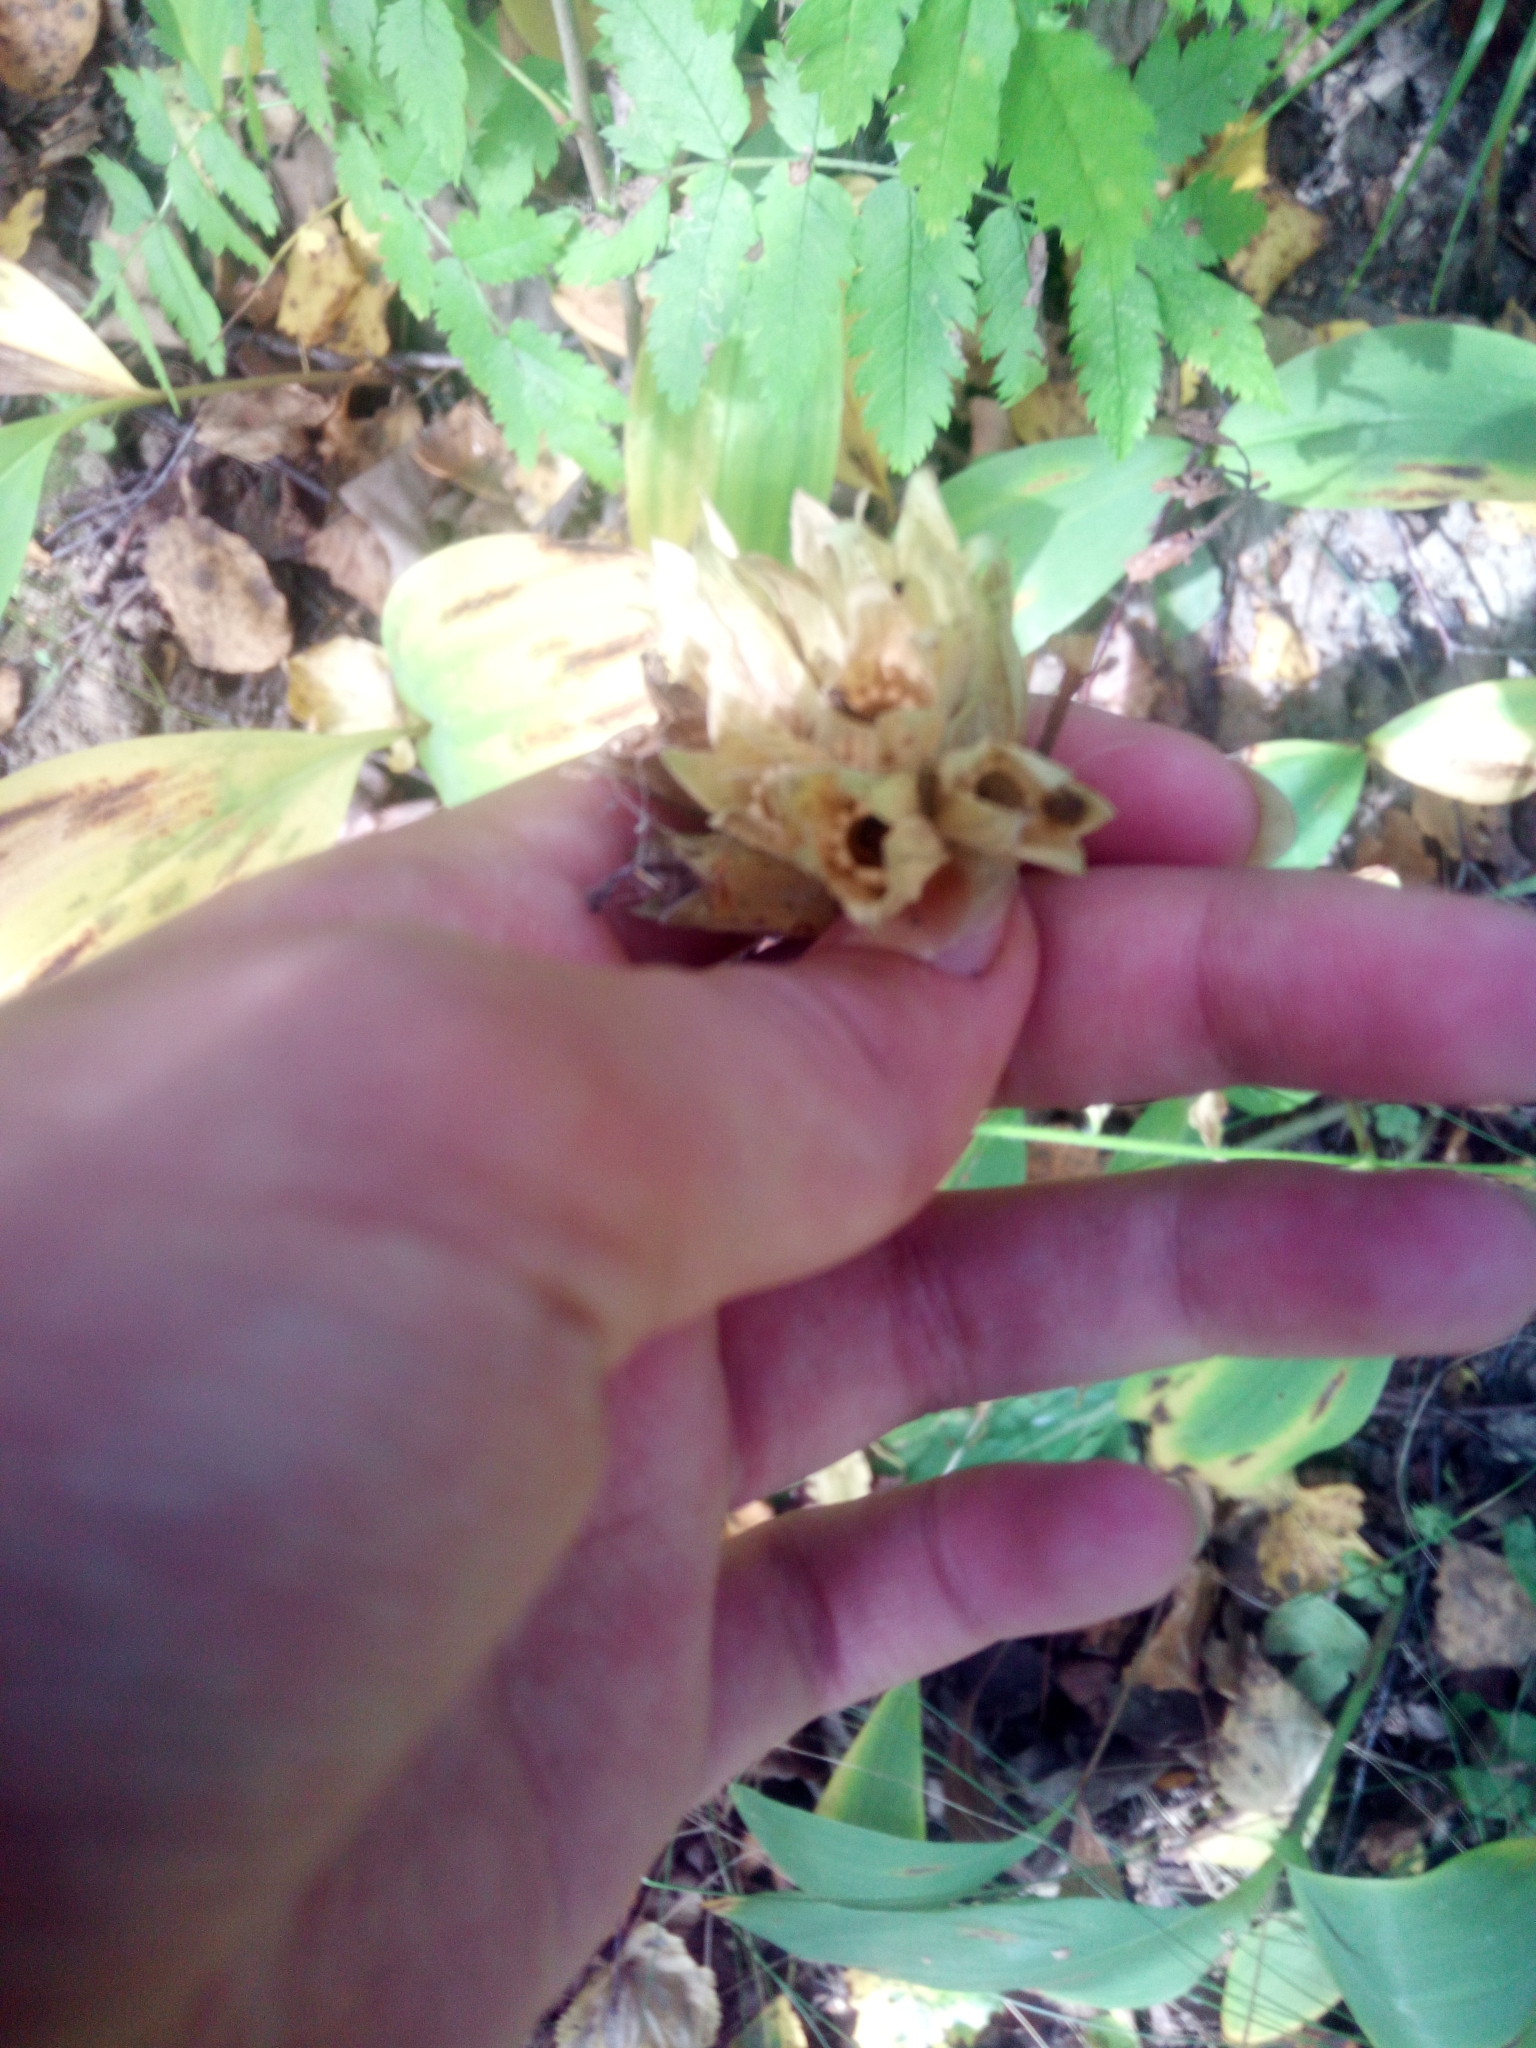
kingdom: Plantae
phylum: Tracheophyta
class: Magnoliopsida
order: Ericales
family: Primulaceae
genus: Primula
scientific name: Primula veris
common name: Cowslip
